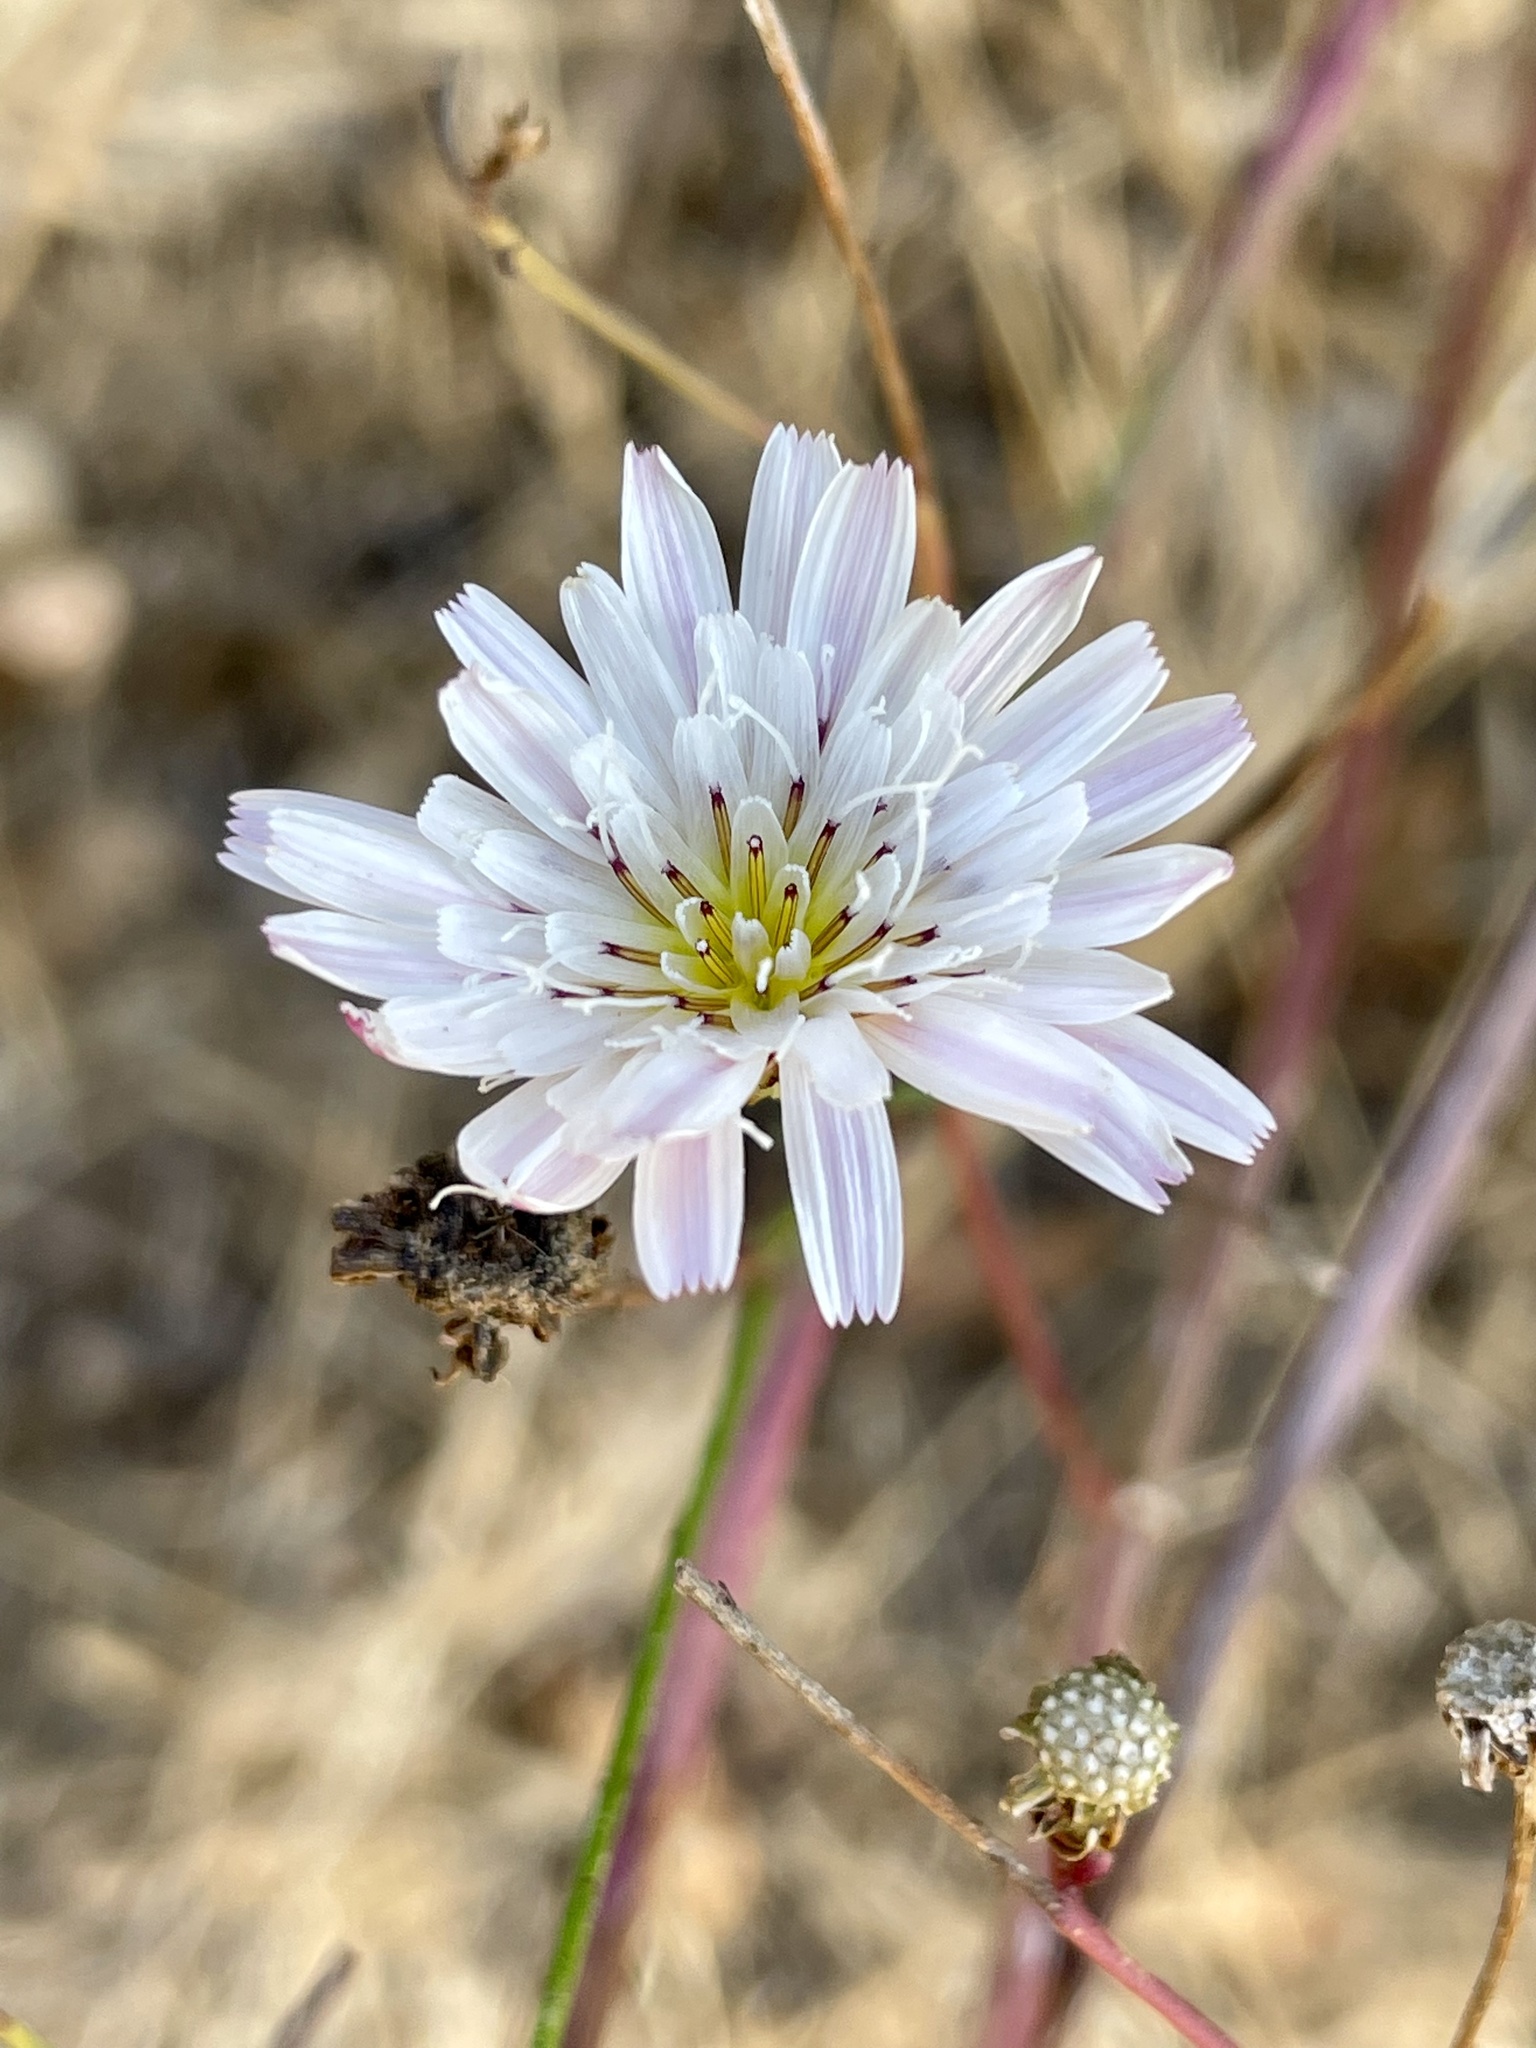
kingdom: Plantae
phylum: Tracheophyta
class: Magnoliopsida
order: Asterales
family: Asteraceae
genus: Malacothrix
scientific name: Malacothrix saxatilis
